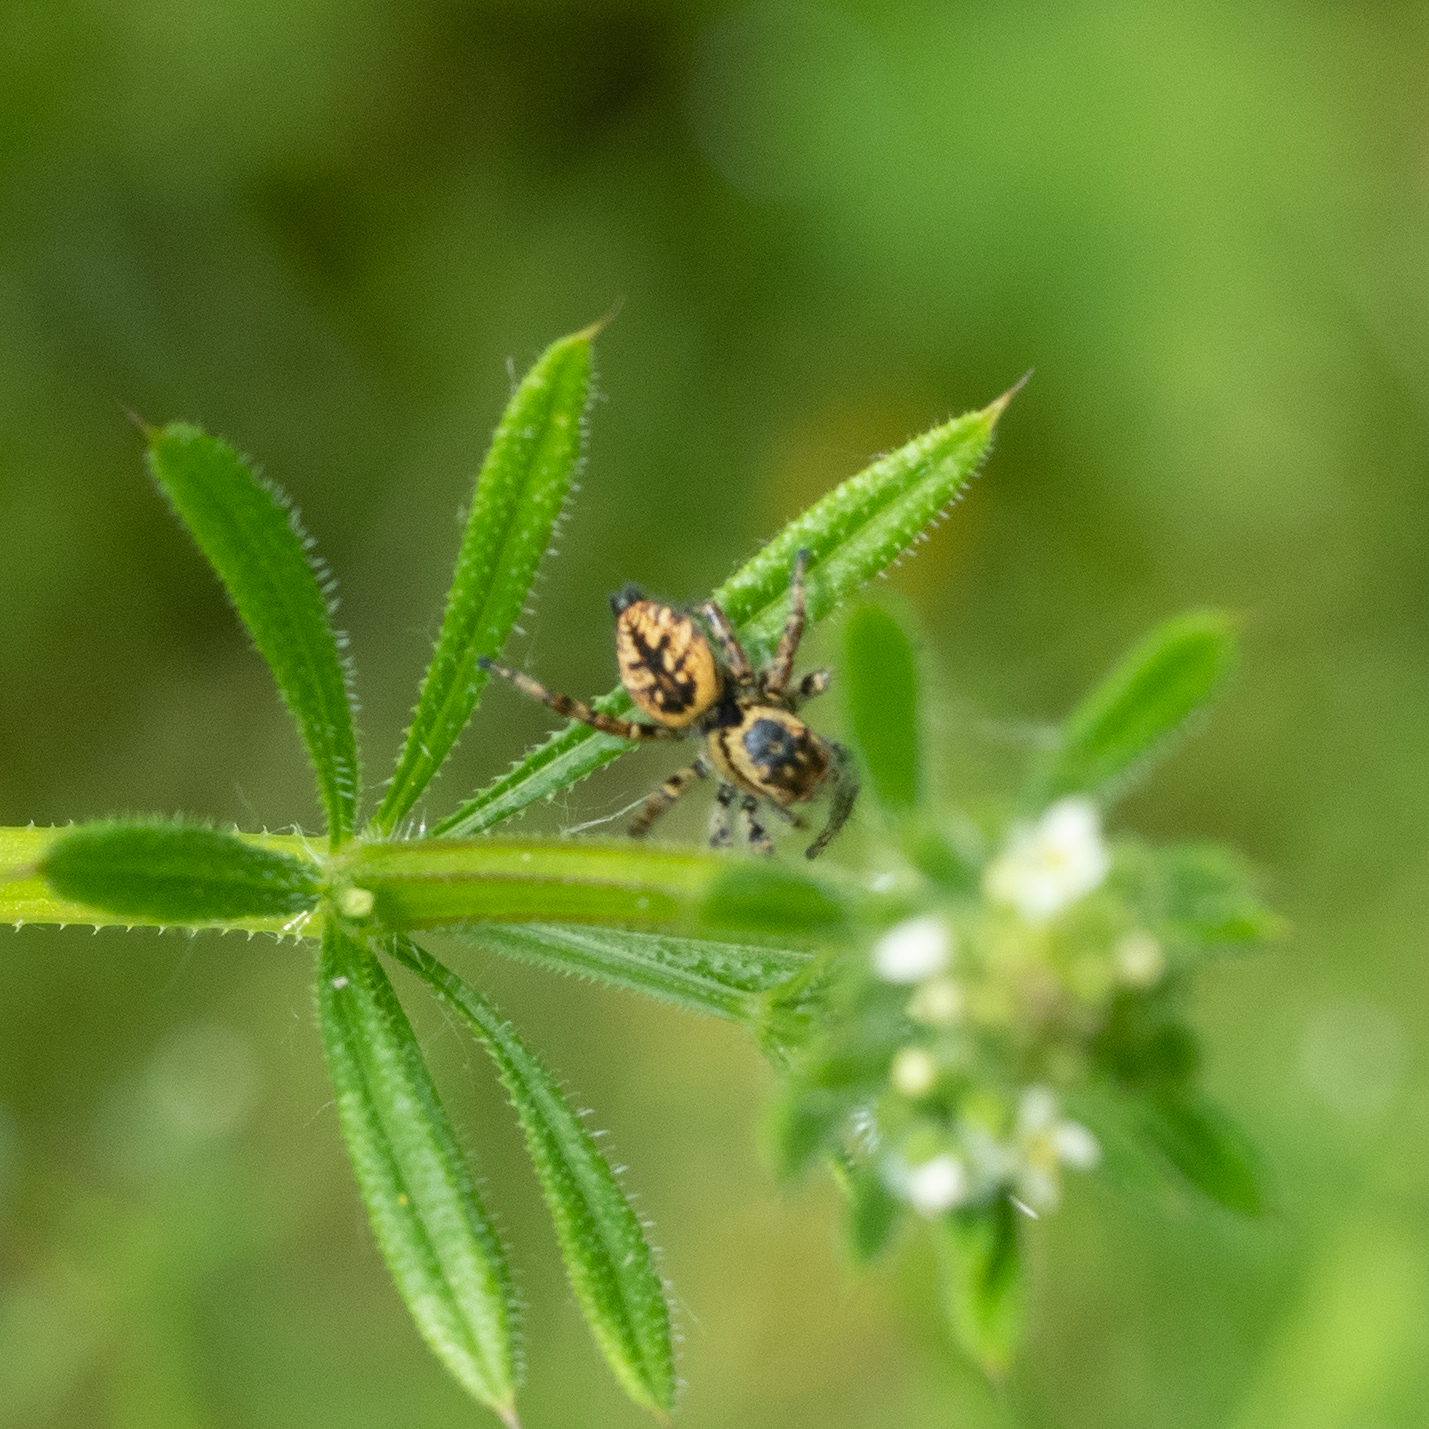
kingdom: Animalia
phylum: Arthropoda
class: Arachnida
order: Araneae
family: Salticidae
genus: Carrhotus
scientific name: Carrhotus xanthogramma
